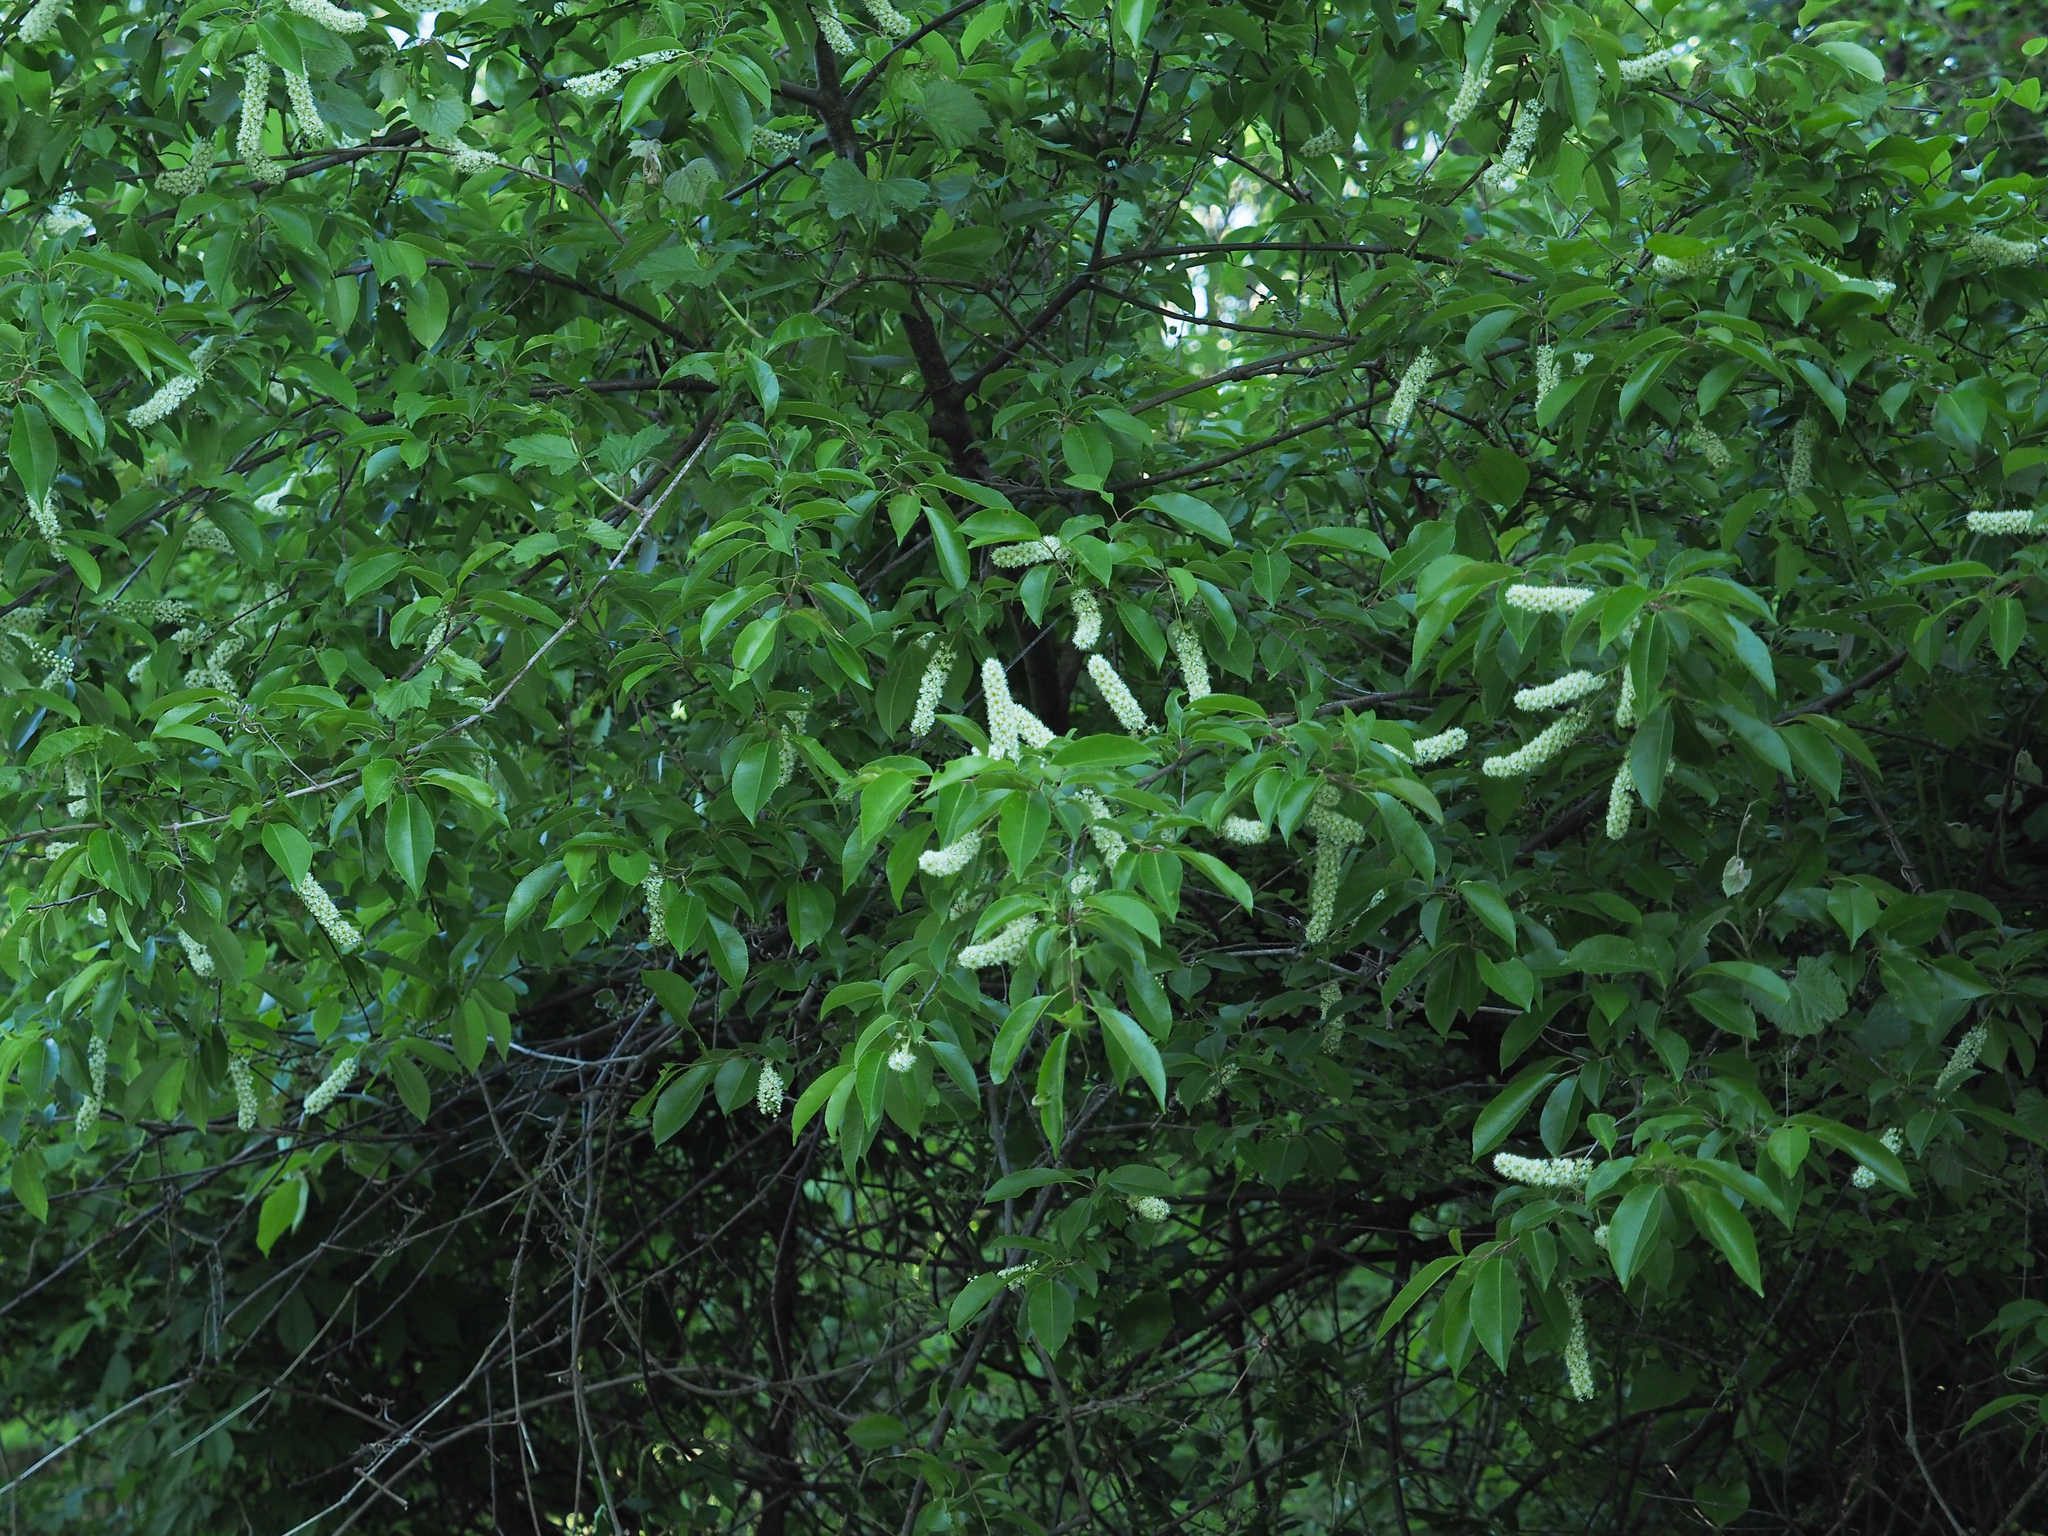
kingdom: Plantae
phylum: Tracheophyta
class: Magnoliopsida
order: Rosales
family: Rosaceae
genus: Prunus
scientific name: Prunus serotina
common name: Black cherry
